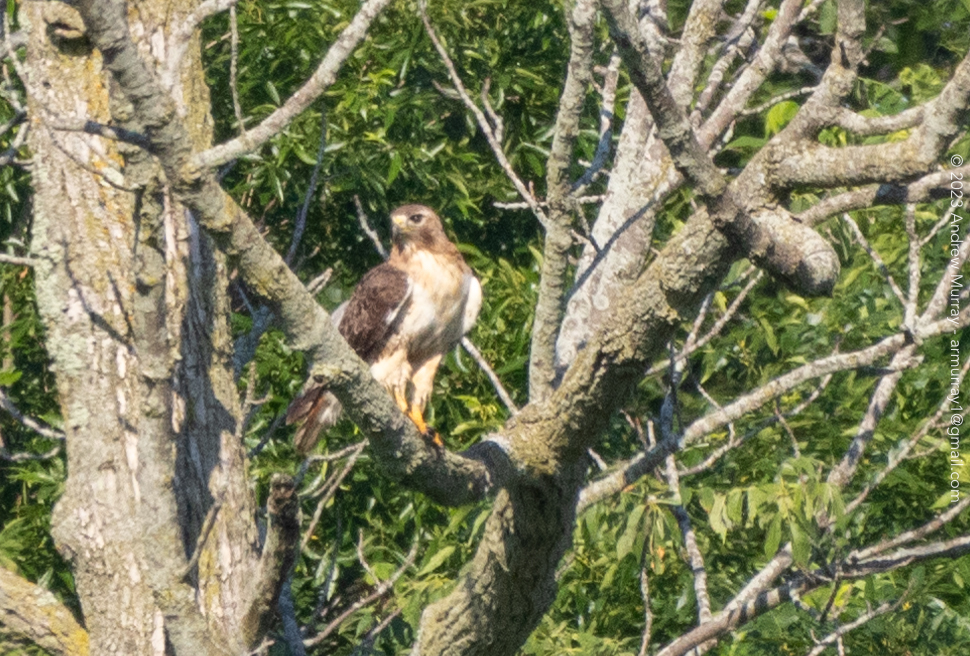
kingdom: Animalia
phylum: Chordata
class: Aves
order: Accipitriformes
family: Accipitridae
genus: Buteo
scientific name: Buteo jamaicensis
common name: Red-tailed hawk
